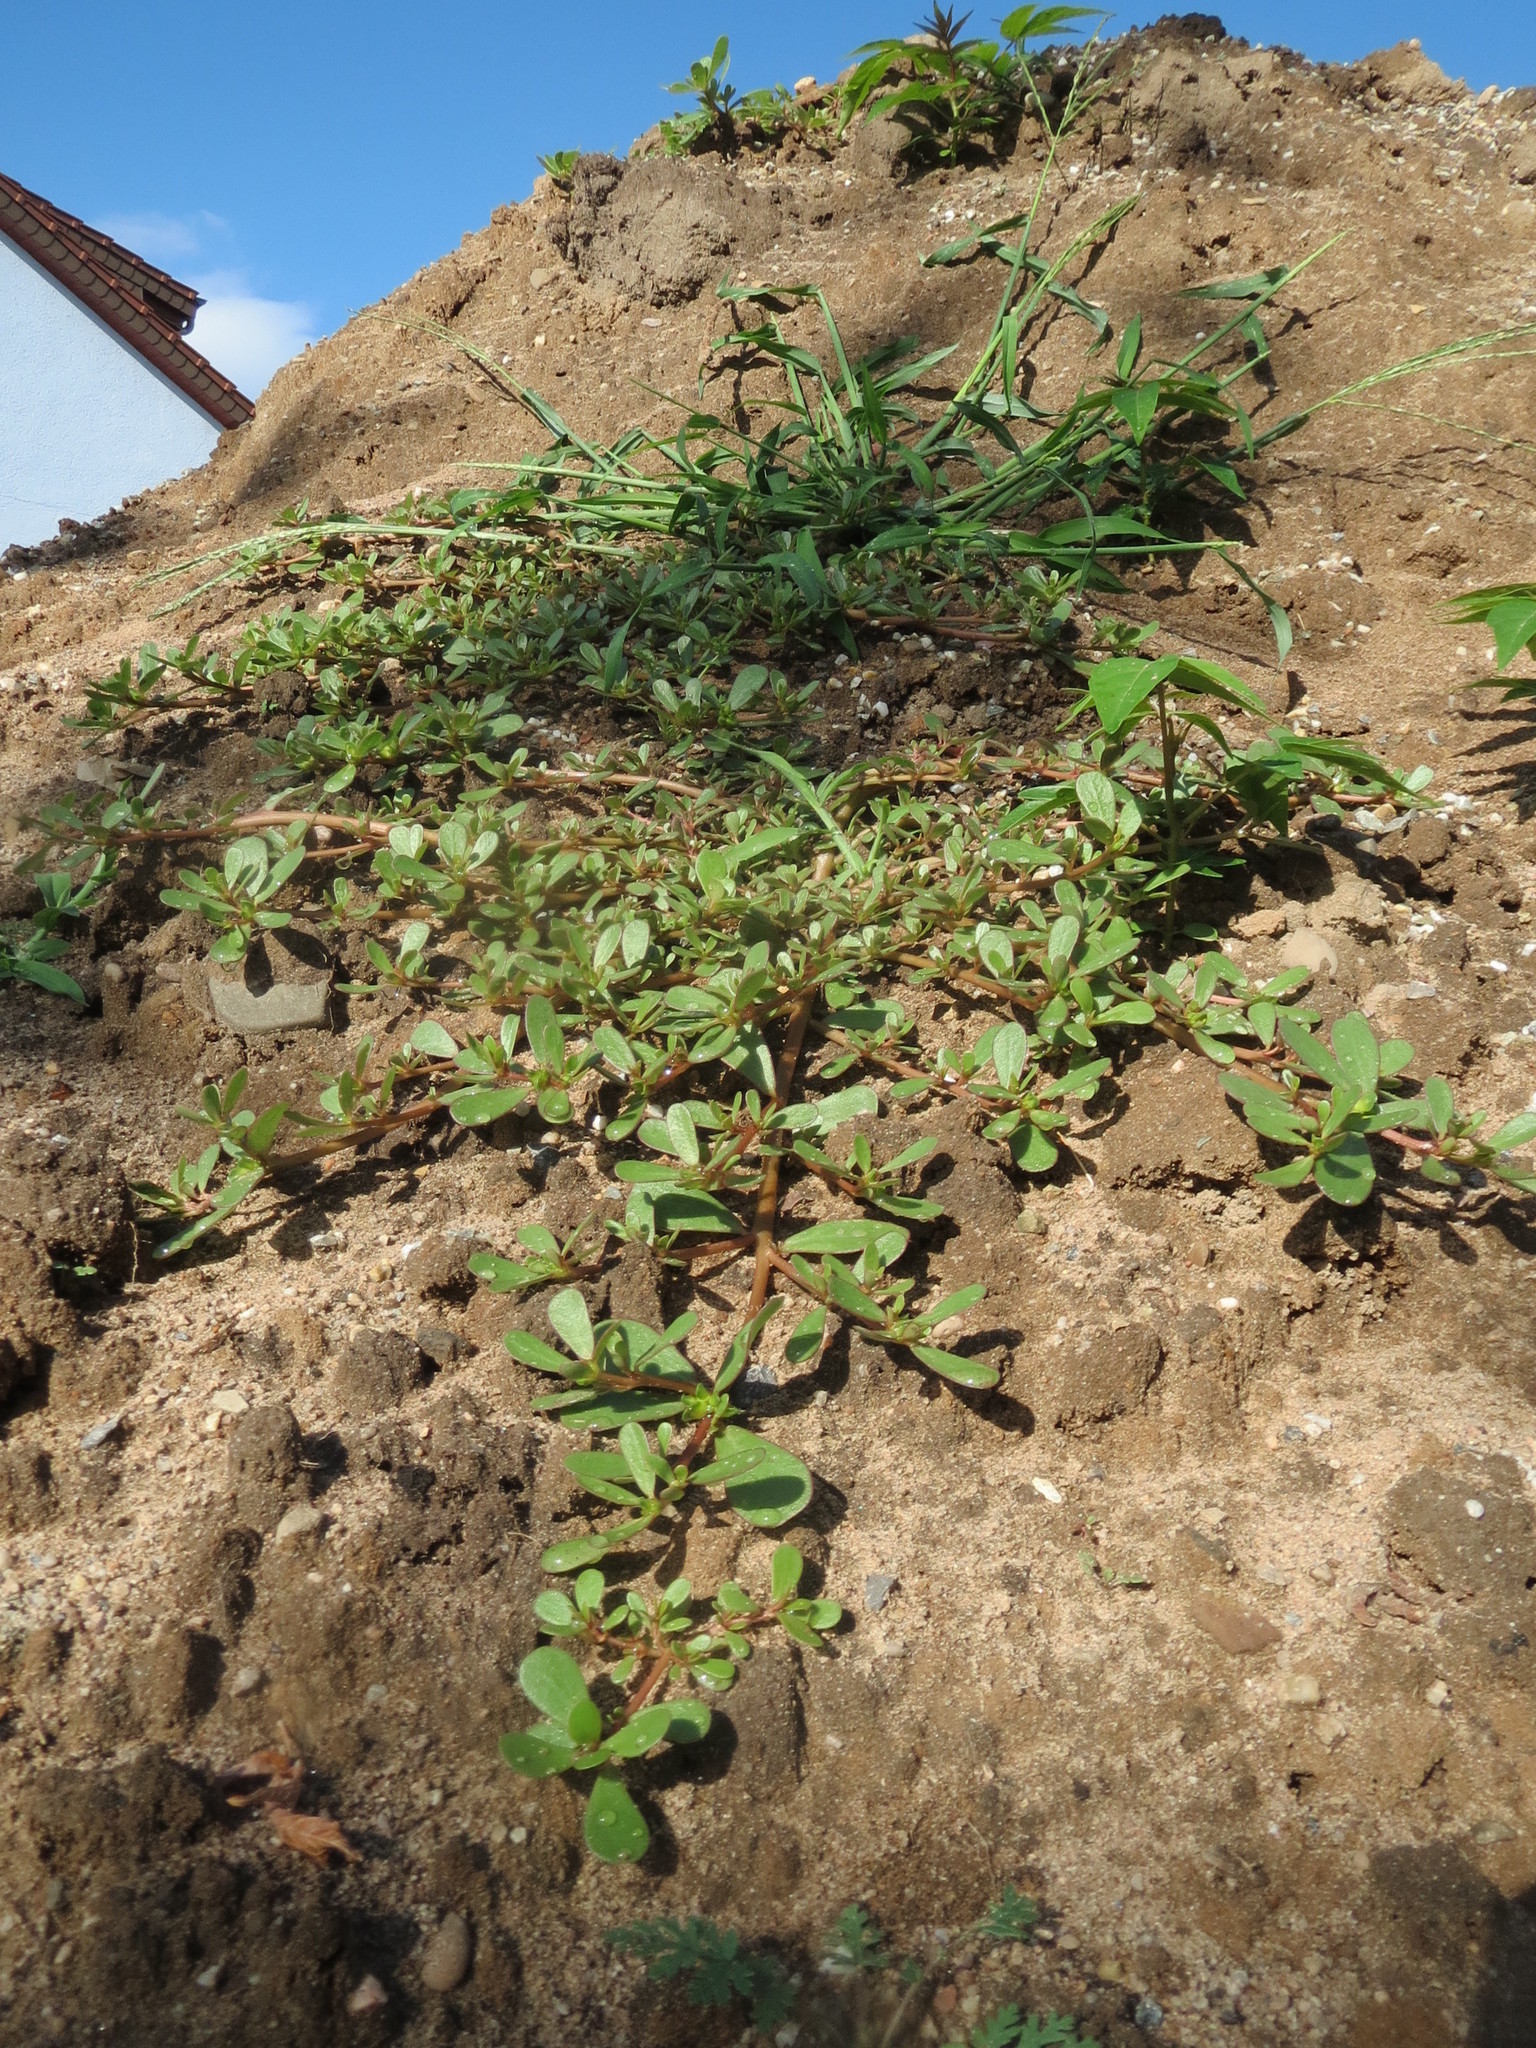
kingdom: Plantae
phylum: Tracheophyta
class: Magnoliopsida
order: Caryophyllales
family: Portulacaceae
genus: Portulaca
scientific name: Portulaca oleracea
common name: Common purslane
